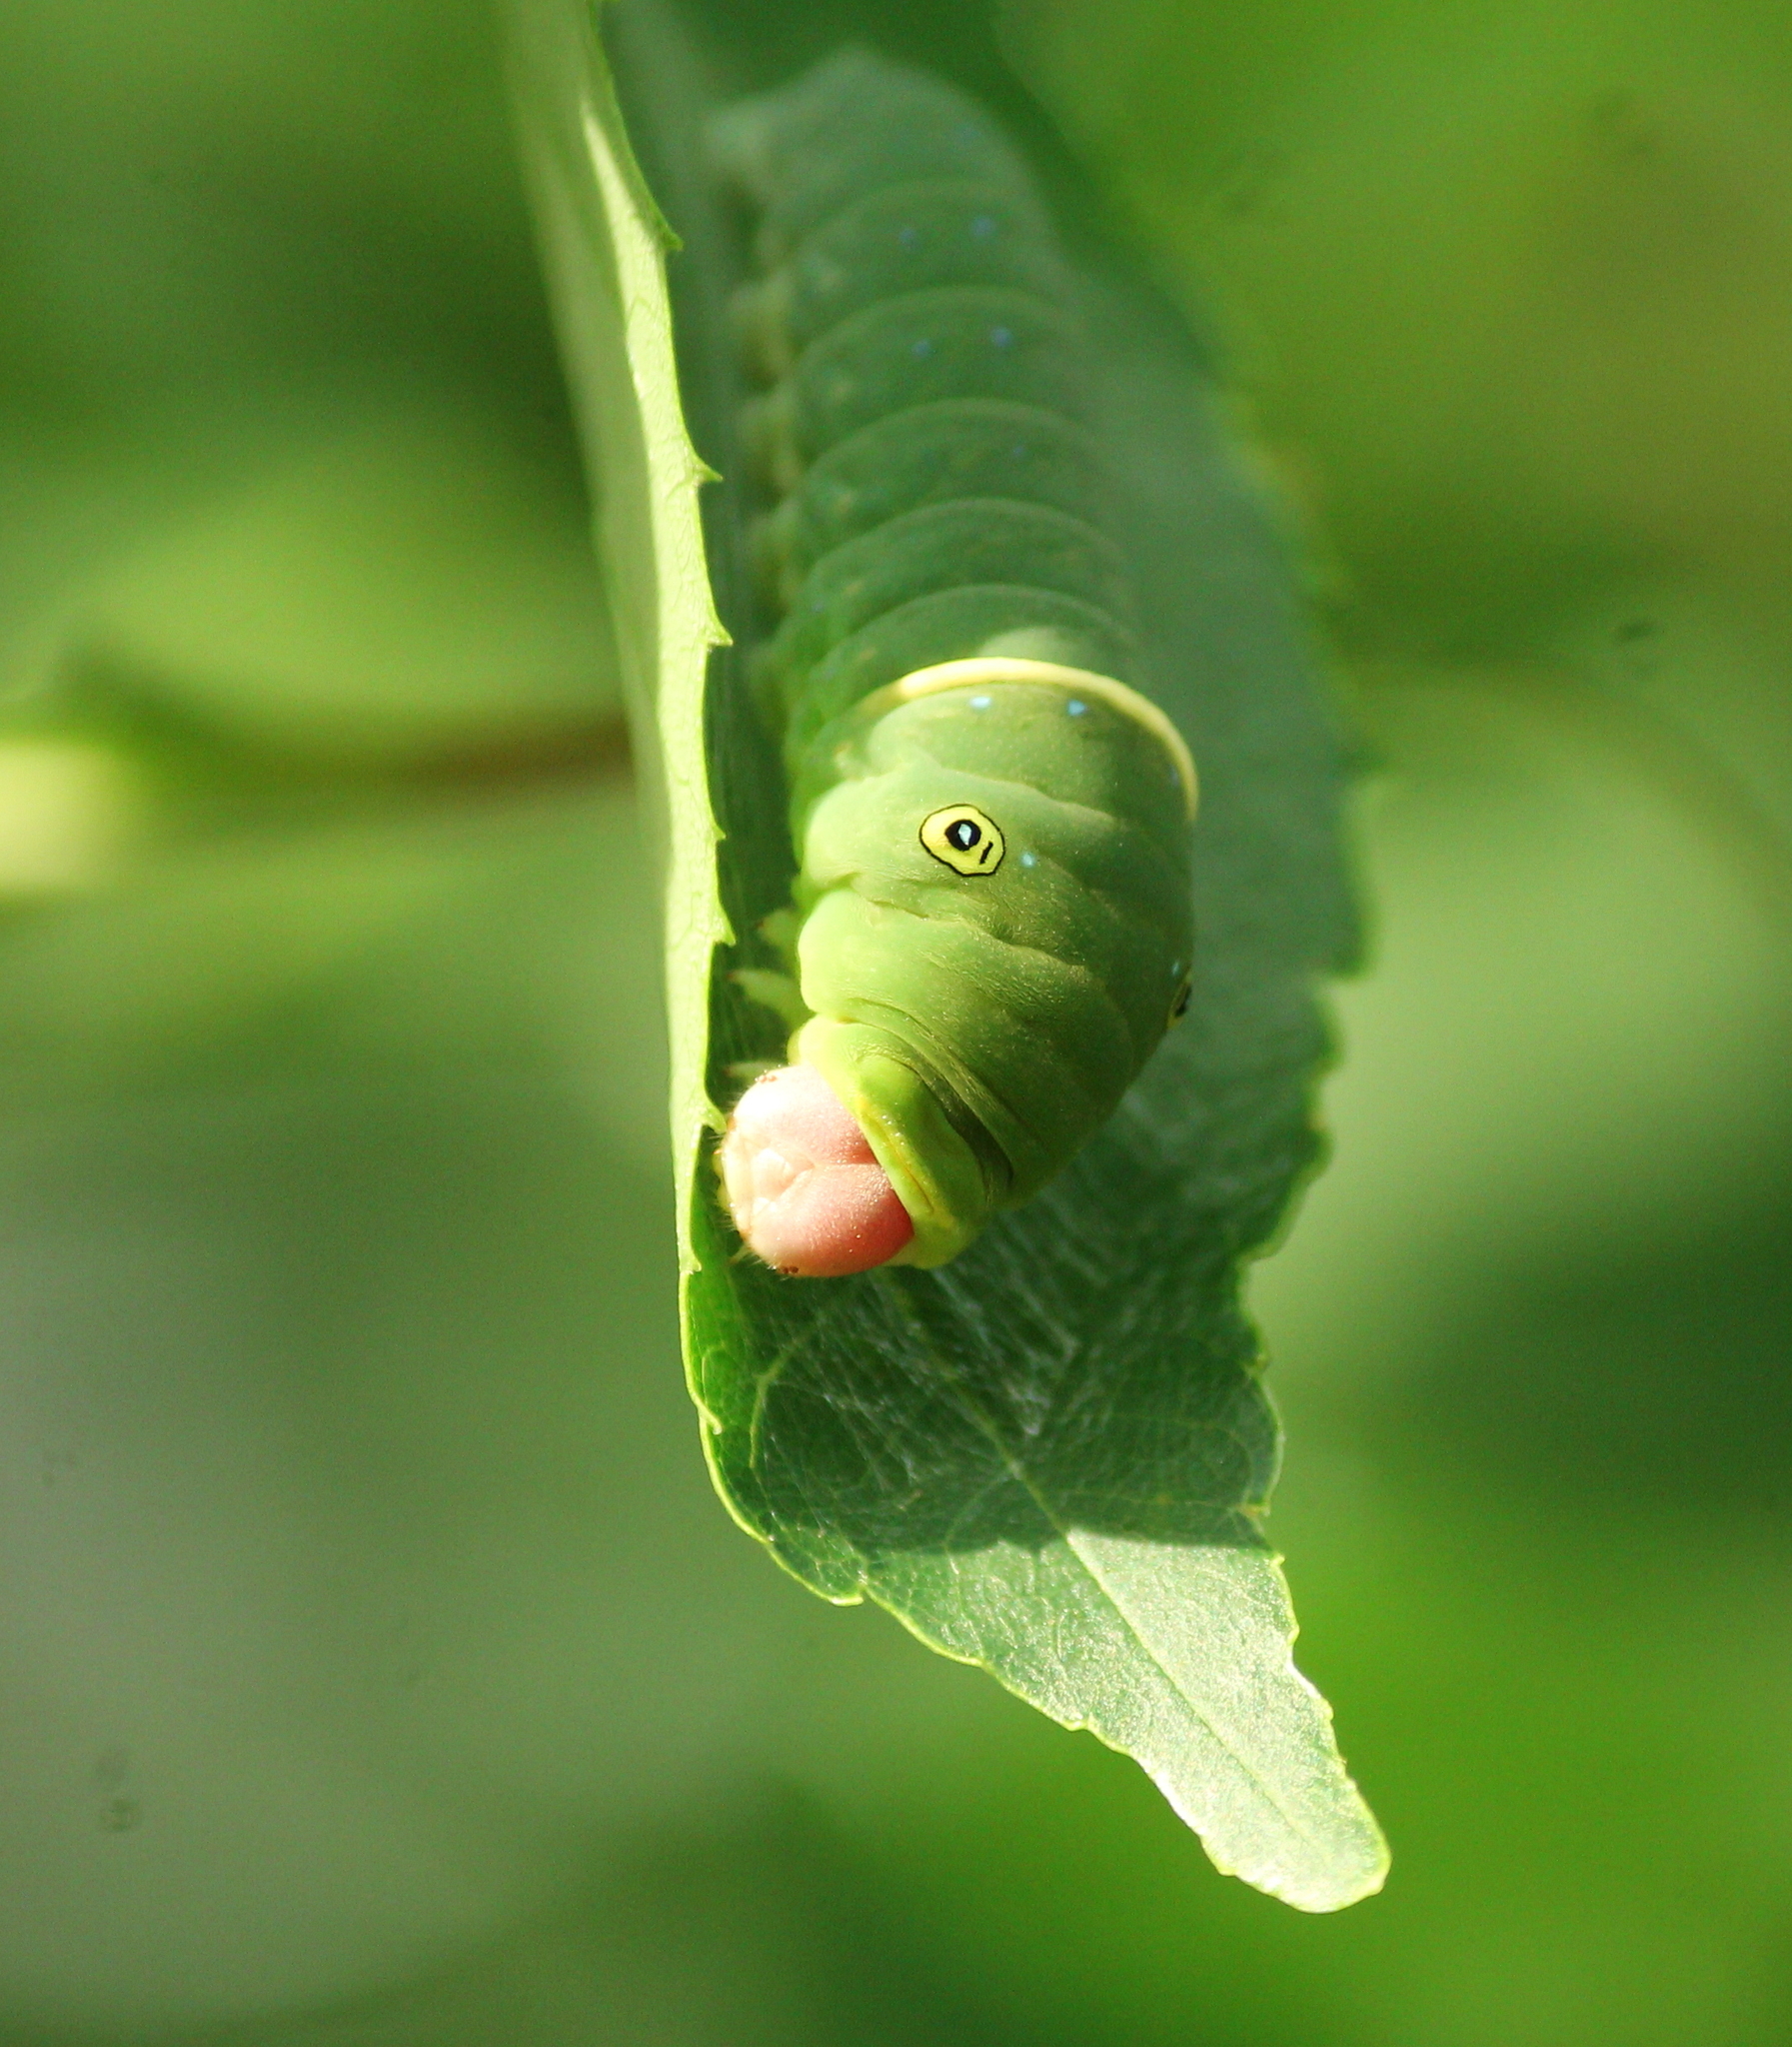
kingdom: Animalia
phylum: Arthropoda
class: Insecta
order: Lepidoptera
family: Papilionidae
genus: Papilio
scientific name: Papilio glaucus
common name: Tiger swallowtail
